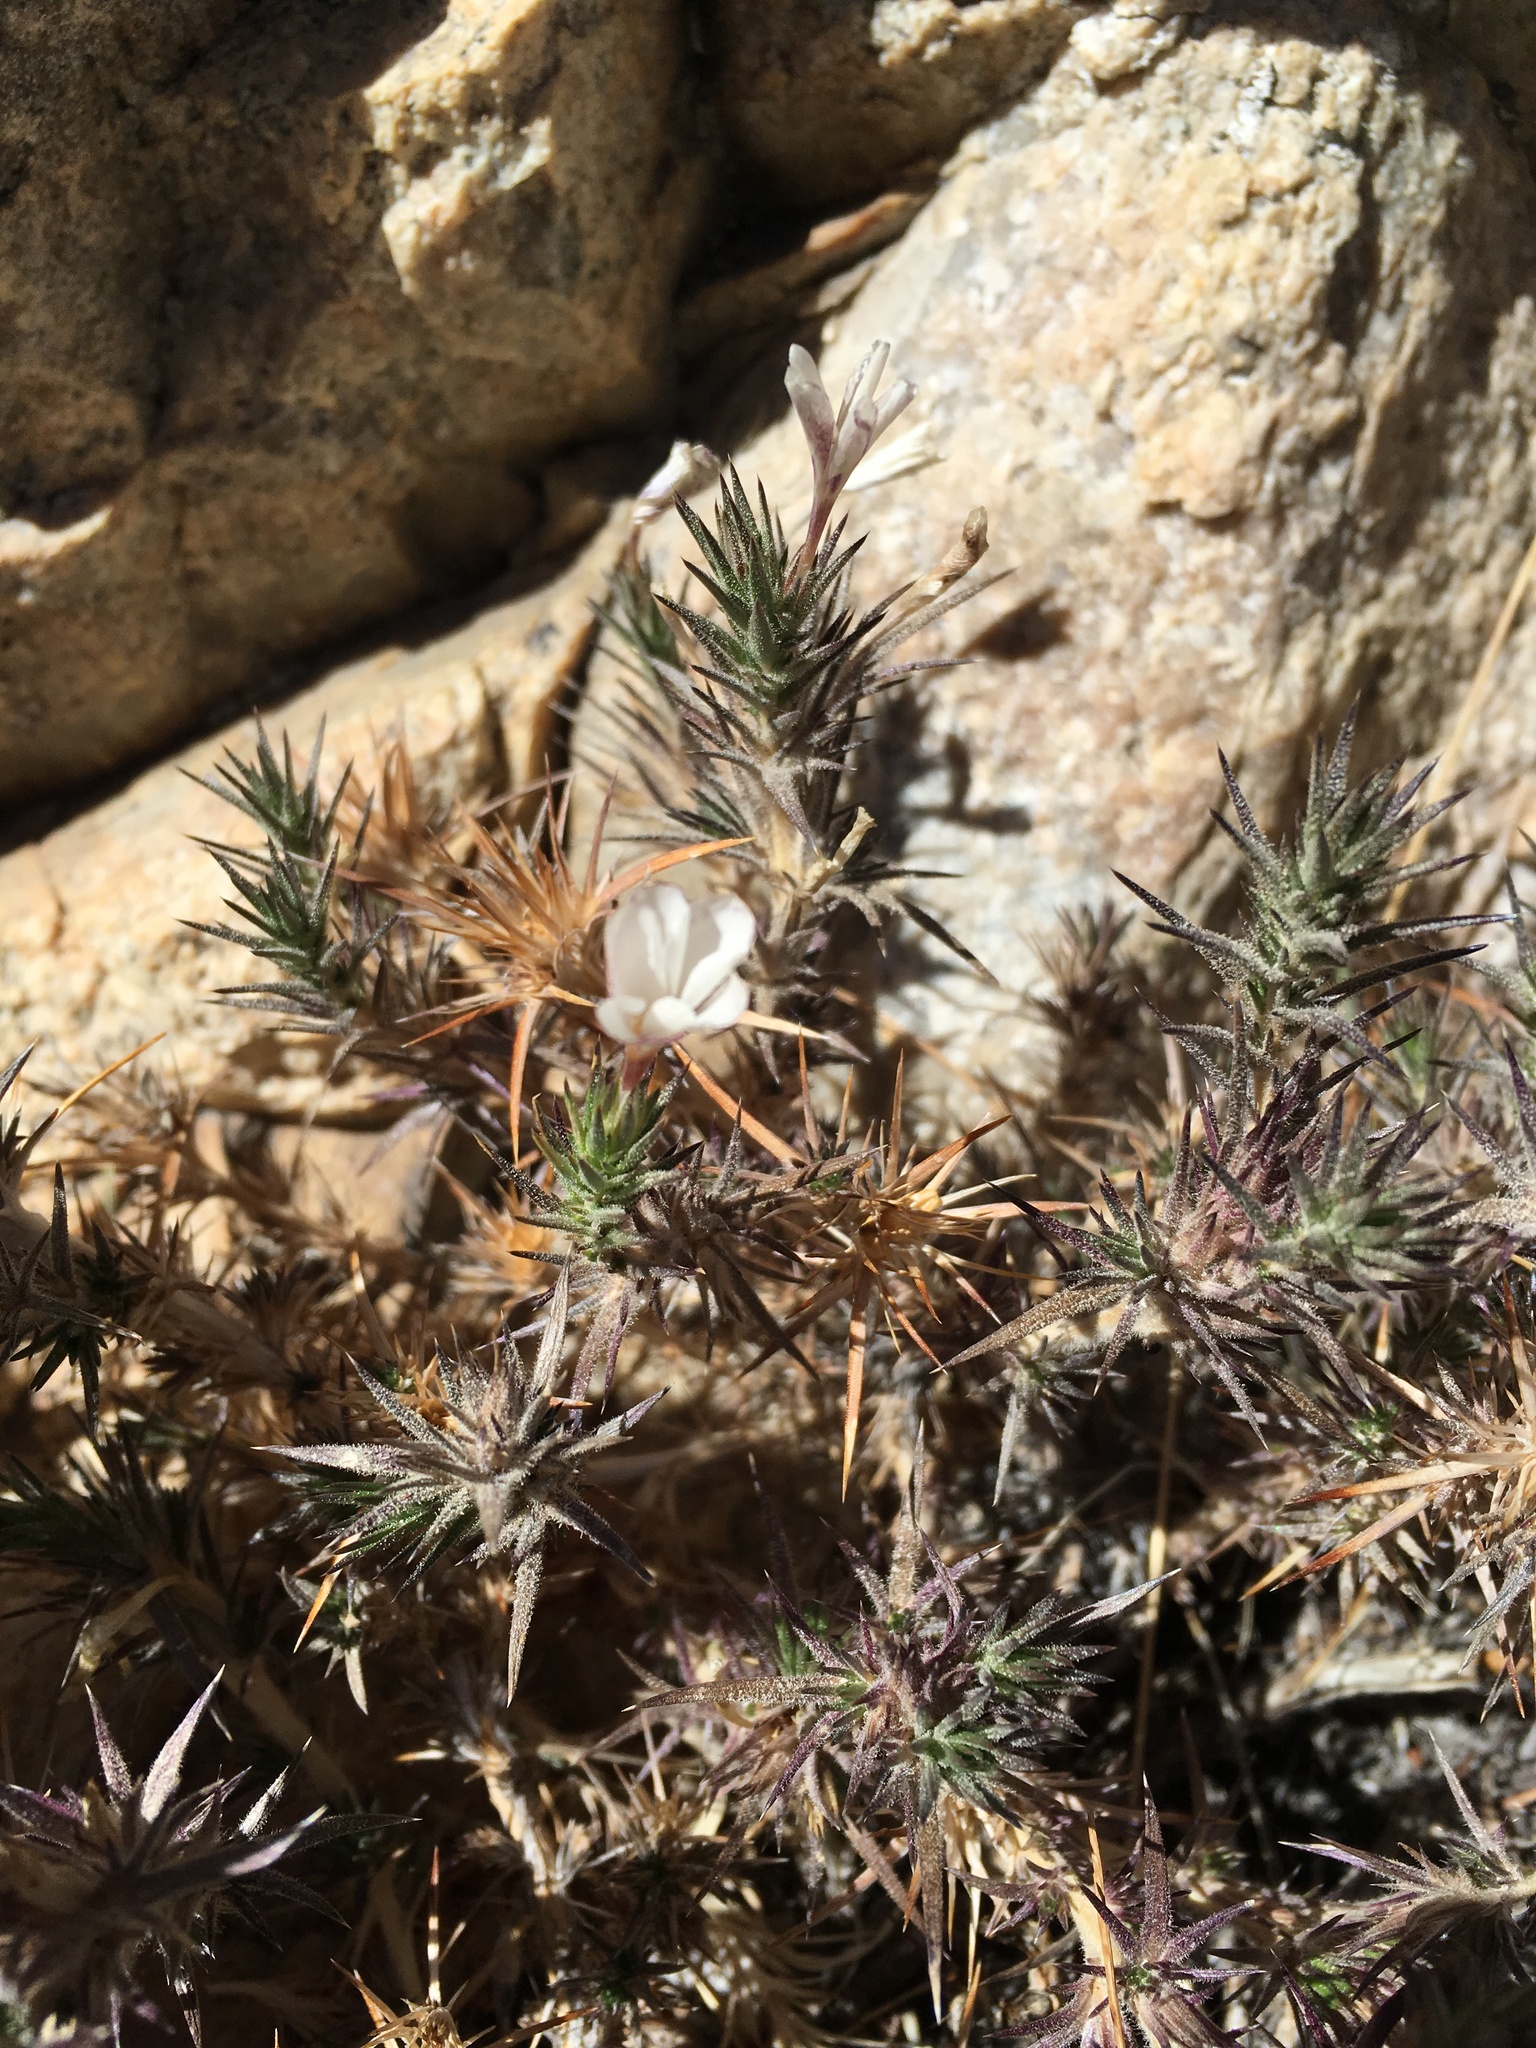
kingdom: Plantae
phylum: Tracheophyta
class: Magnoliopsida
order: Ericales
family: Polemoniaceae
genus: Linanthus
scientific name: Linanthus pungens
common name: Granite prickly phlox
